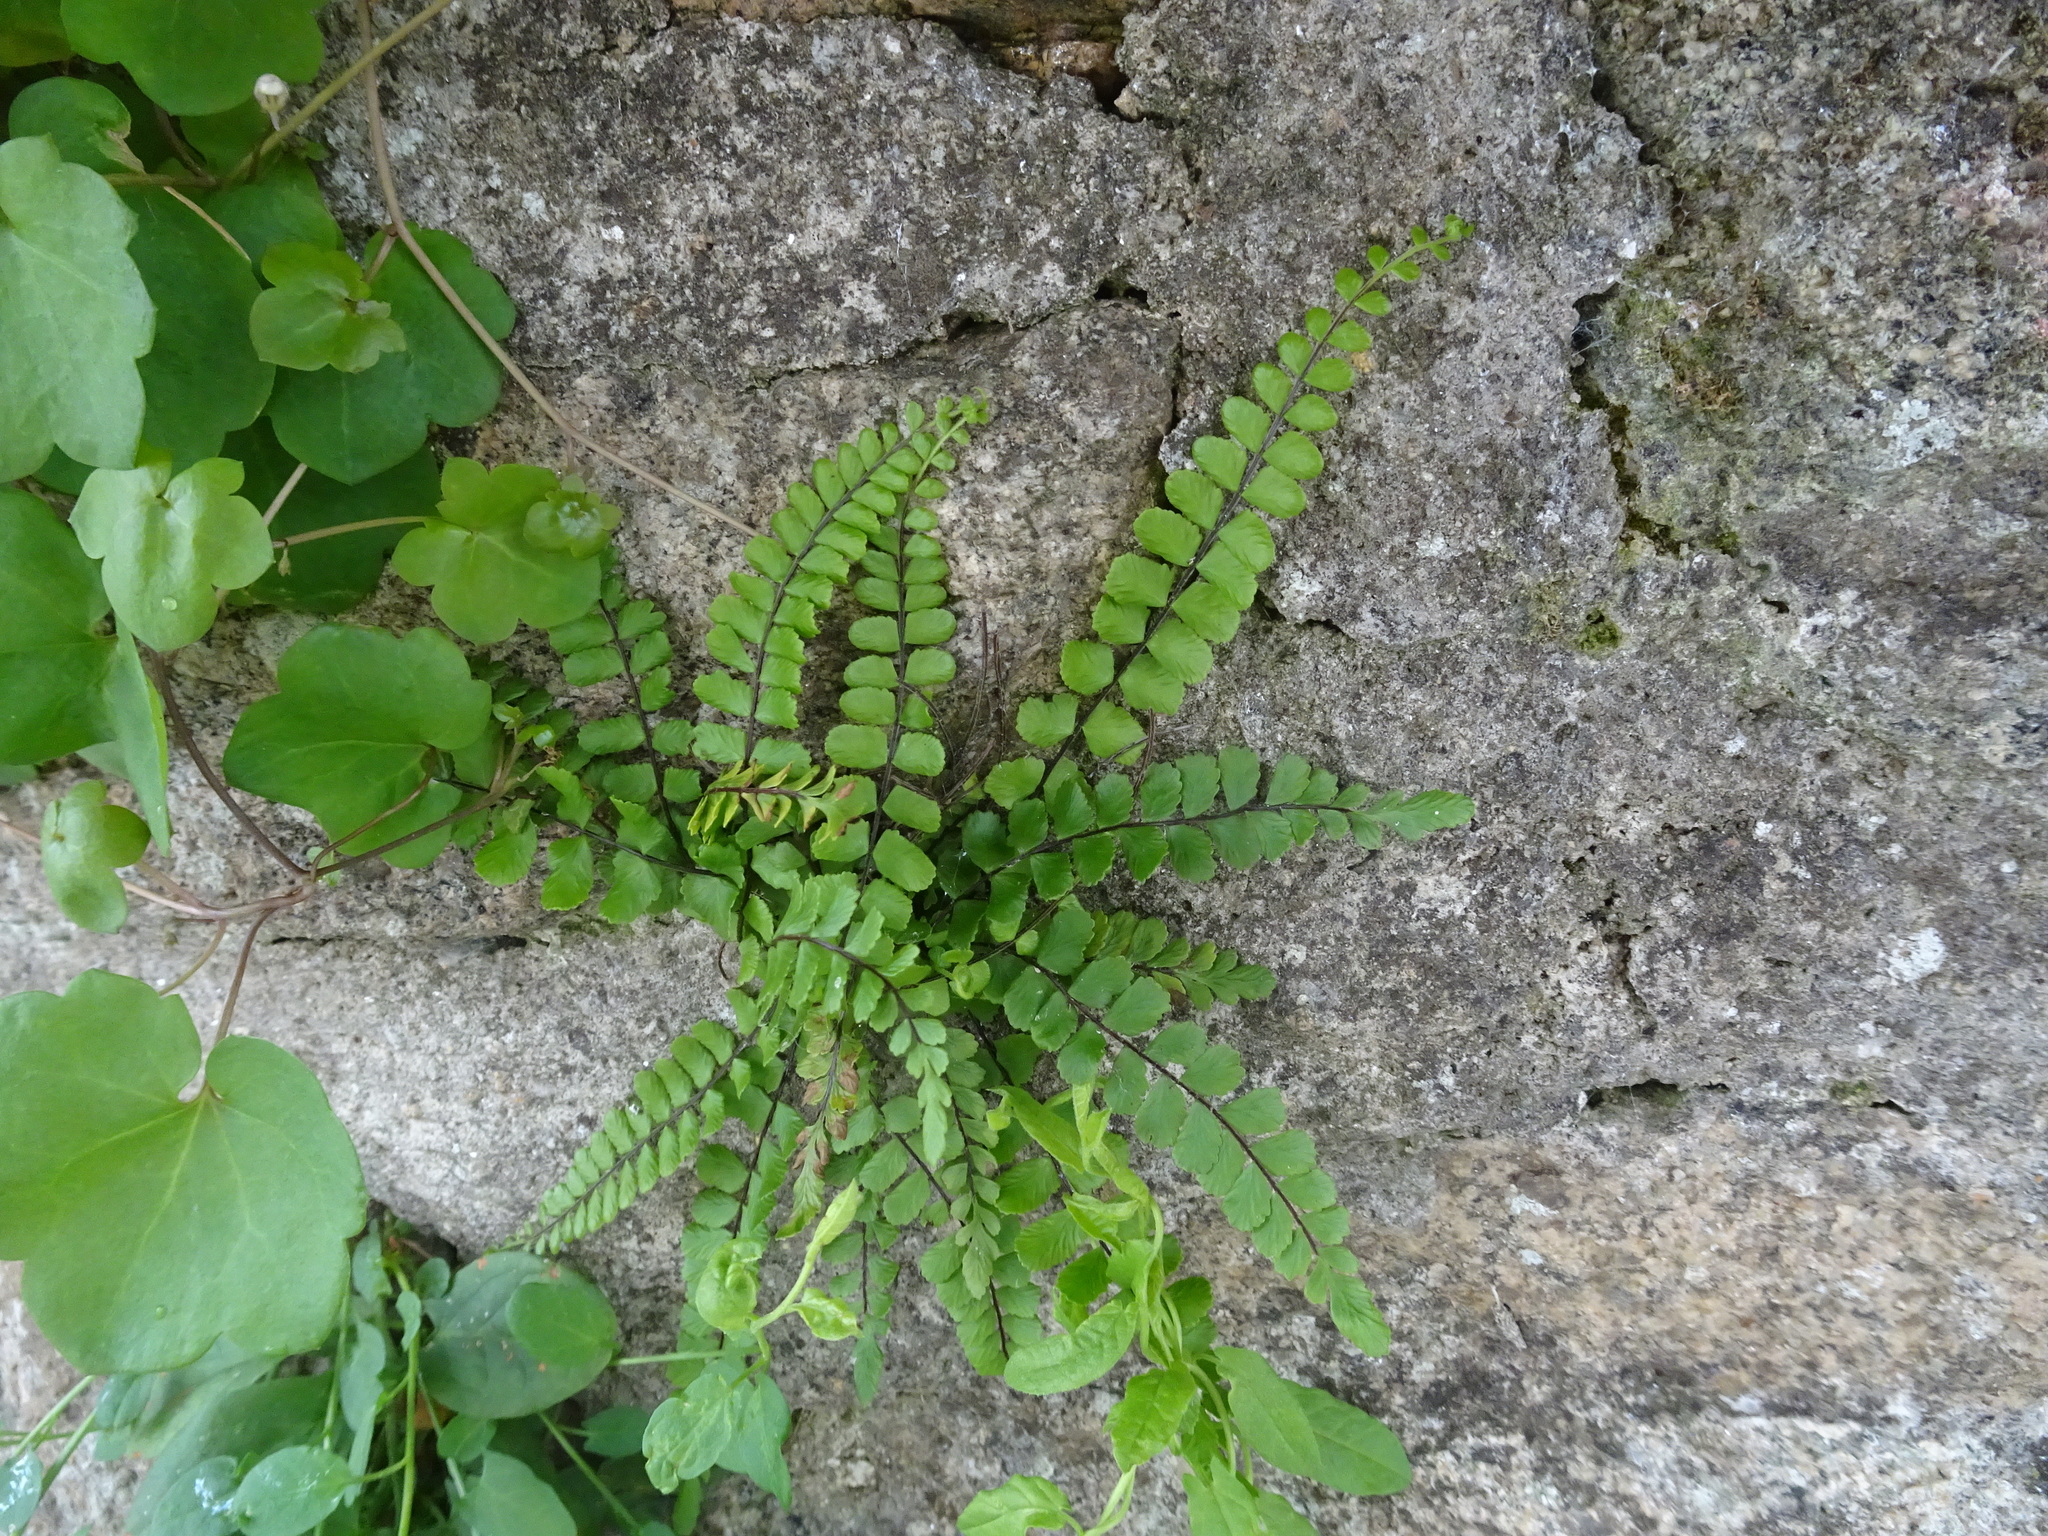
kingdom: Plantae
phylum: Tracheophyta
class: Polypodiopsida
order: Polypodiales
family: Aspleniaceae
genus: Asplenium
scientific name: Asplenium trichomanes
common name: Maidenhair spleenwort
